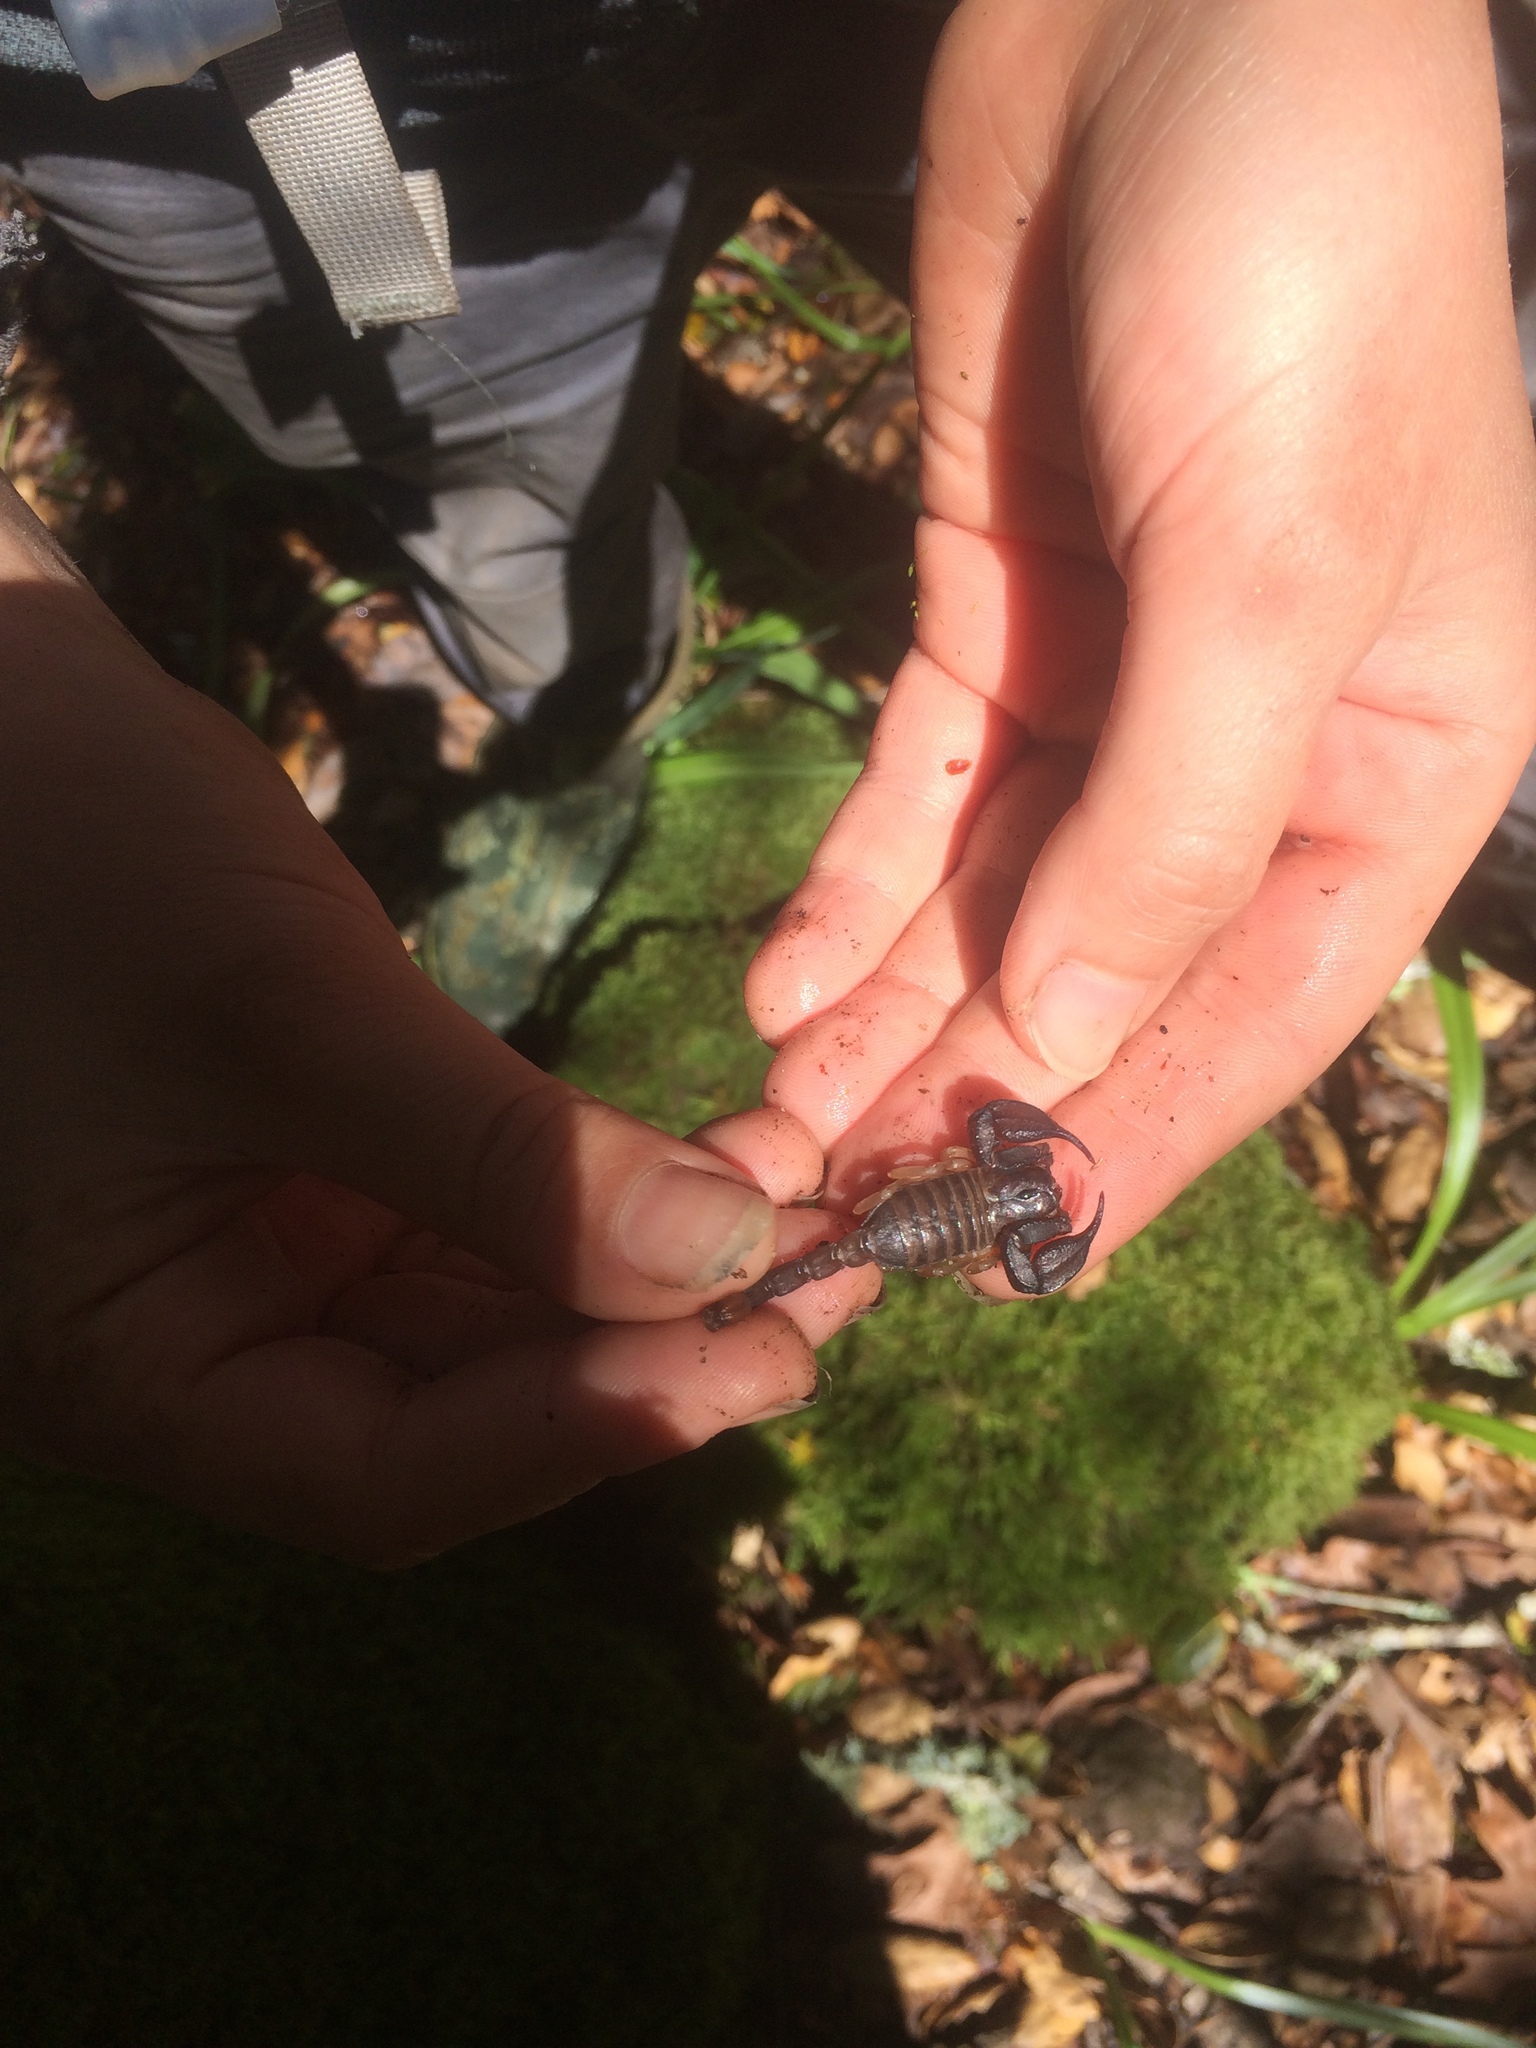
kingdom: Animalia
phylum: Arthropoda
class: Arachnida
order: Scorpiones
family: Chactidae
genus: Uroctonus
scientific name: Uroctonus mordax
